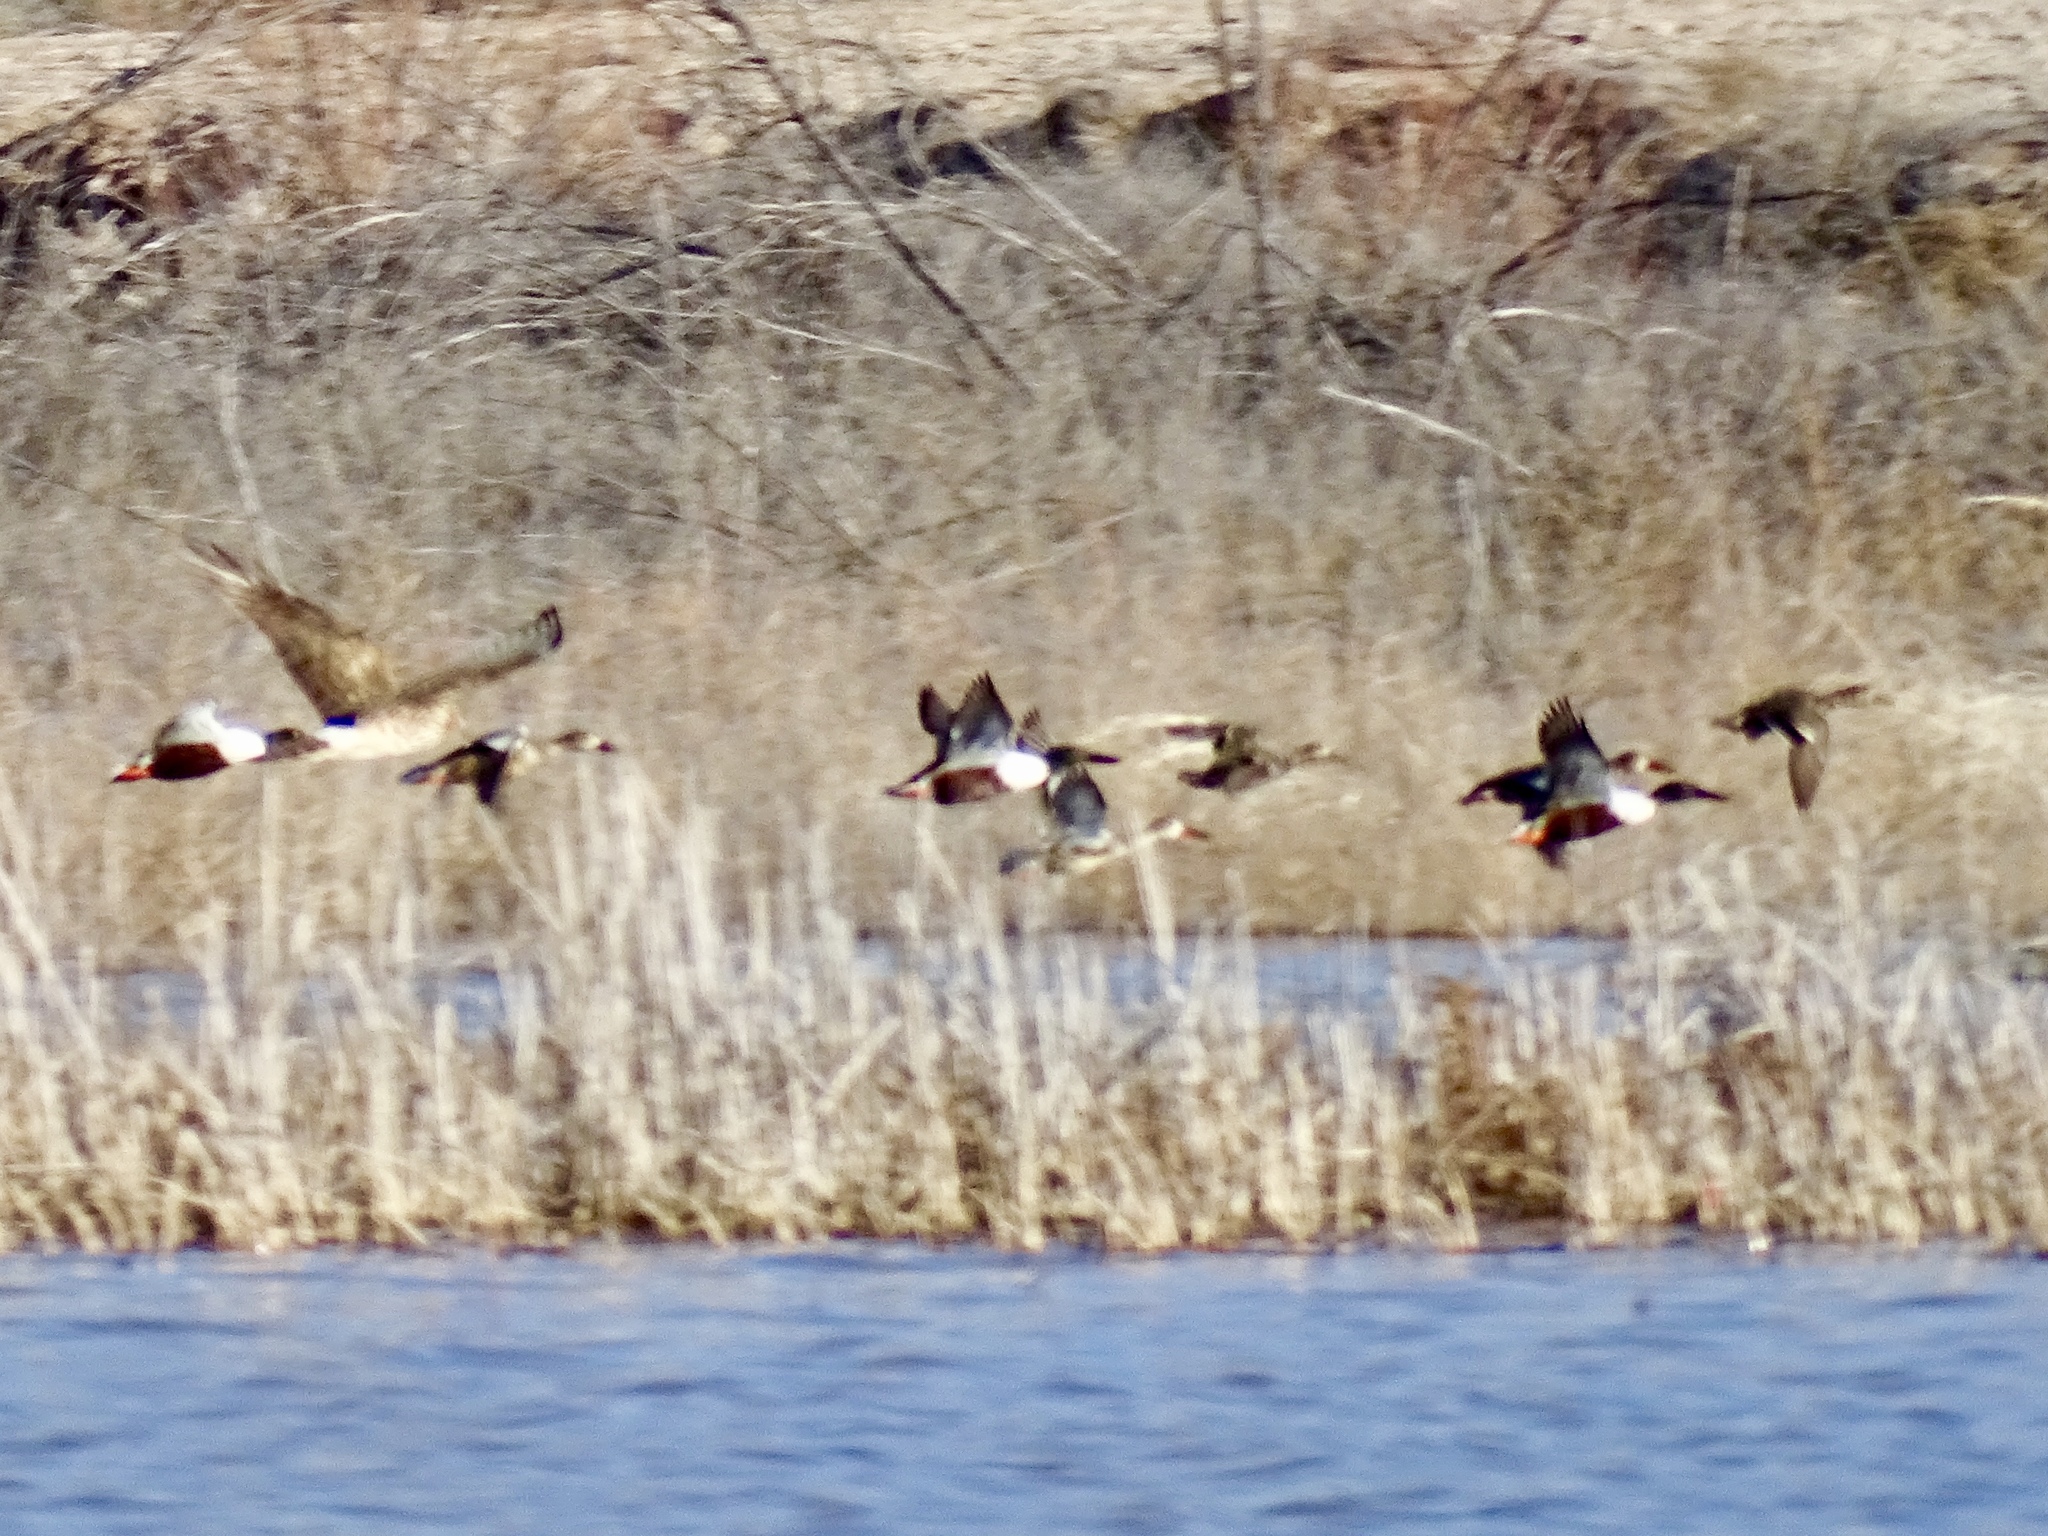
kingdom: Animalia
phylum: Chordata
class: Aves
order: Accipitriformes
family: Accipitridae
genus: Circus
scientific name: Circus cyaneus
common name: Hen harrier
